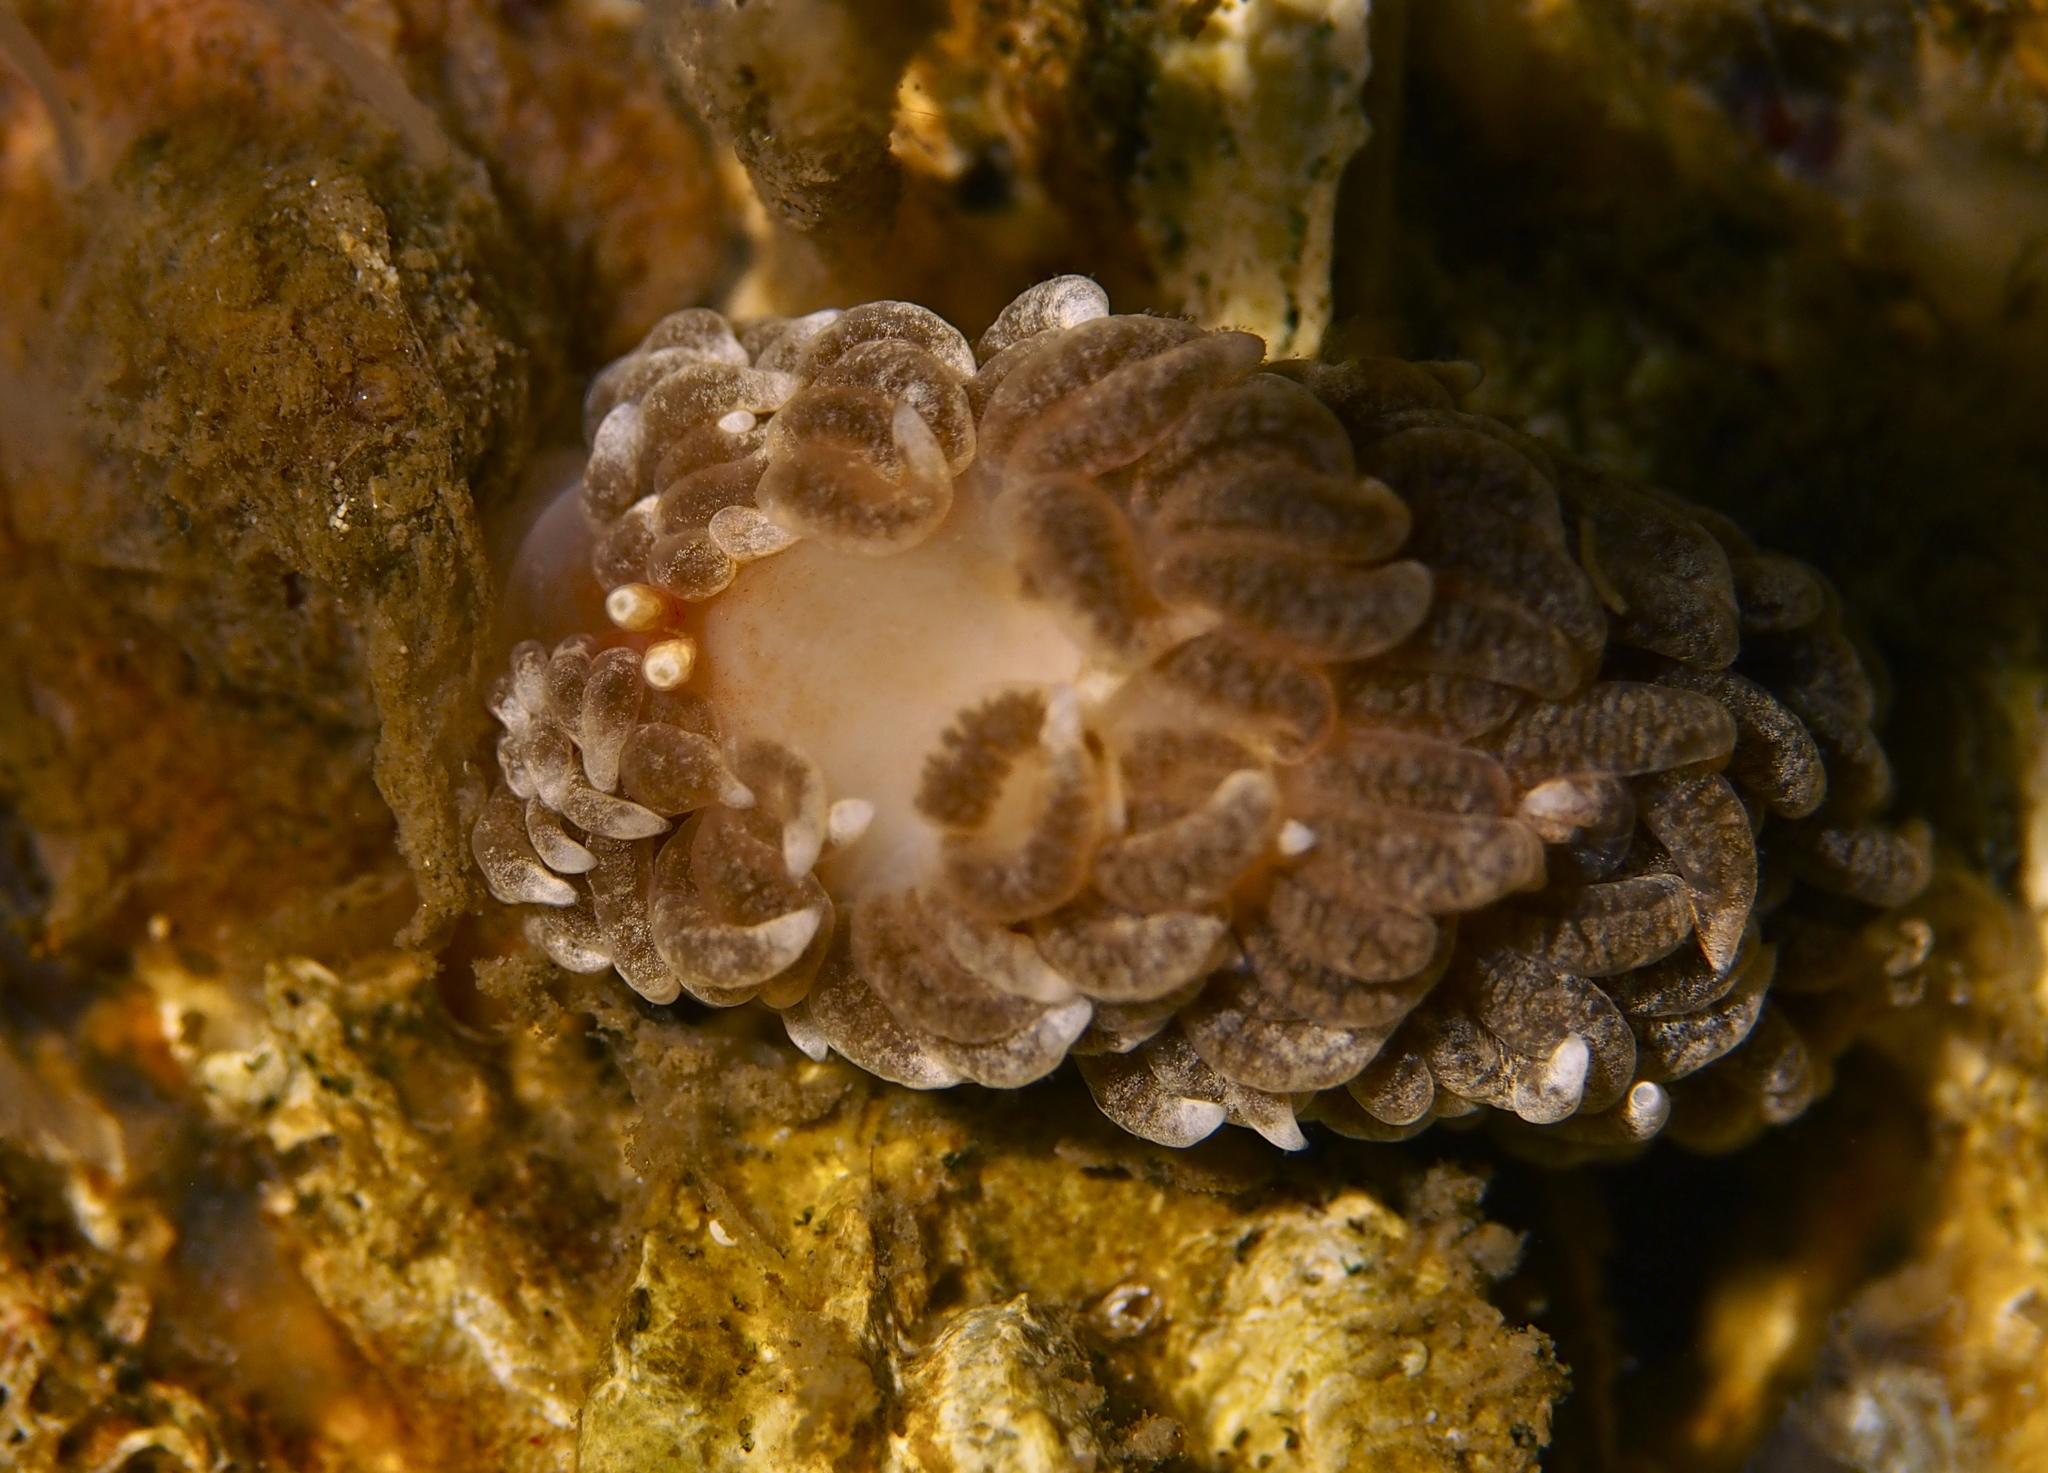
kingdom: Animalia
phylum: Mollusca
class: Gastropoda
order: Nudibranchia
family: Aeolidiidae
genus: Aeolidiella
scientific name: Aeolidiella glauca
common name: Orange-brown aeolid
